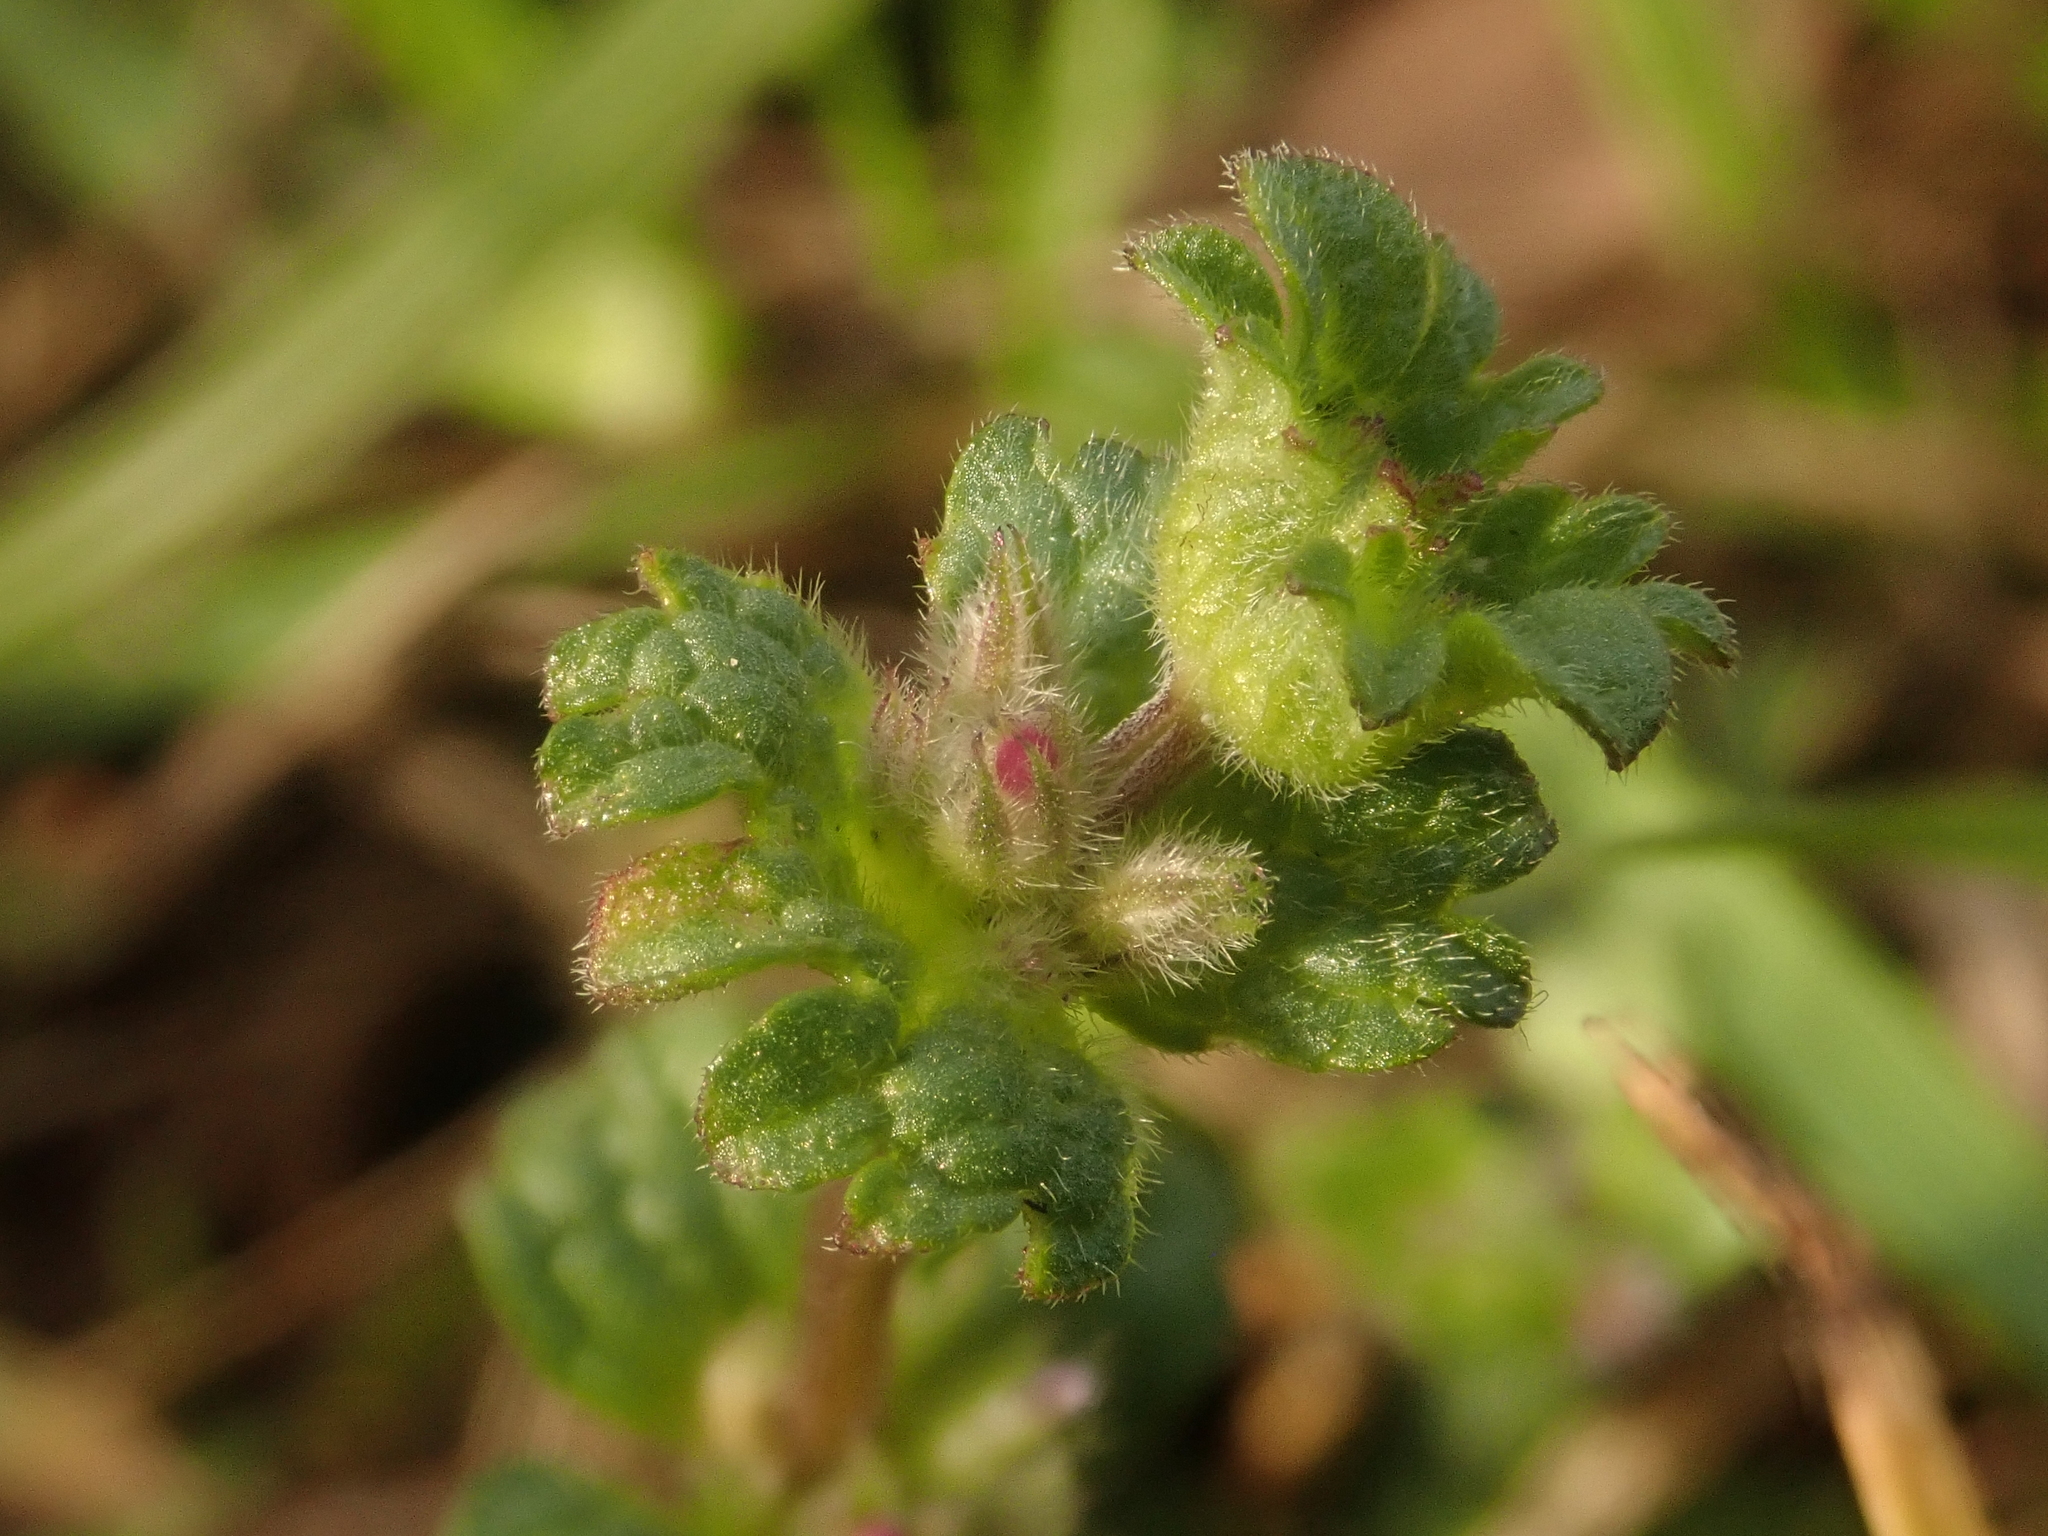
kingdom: Plantae
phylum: Tracheophyta
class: Magnoliopsida
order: Lamiales
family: Lamiaceae
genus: Lamium
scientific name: Lamium amplexicaule
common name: Henbit dead-nettle
